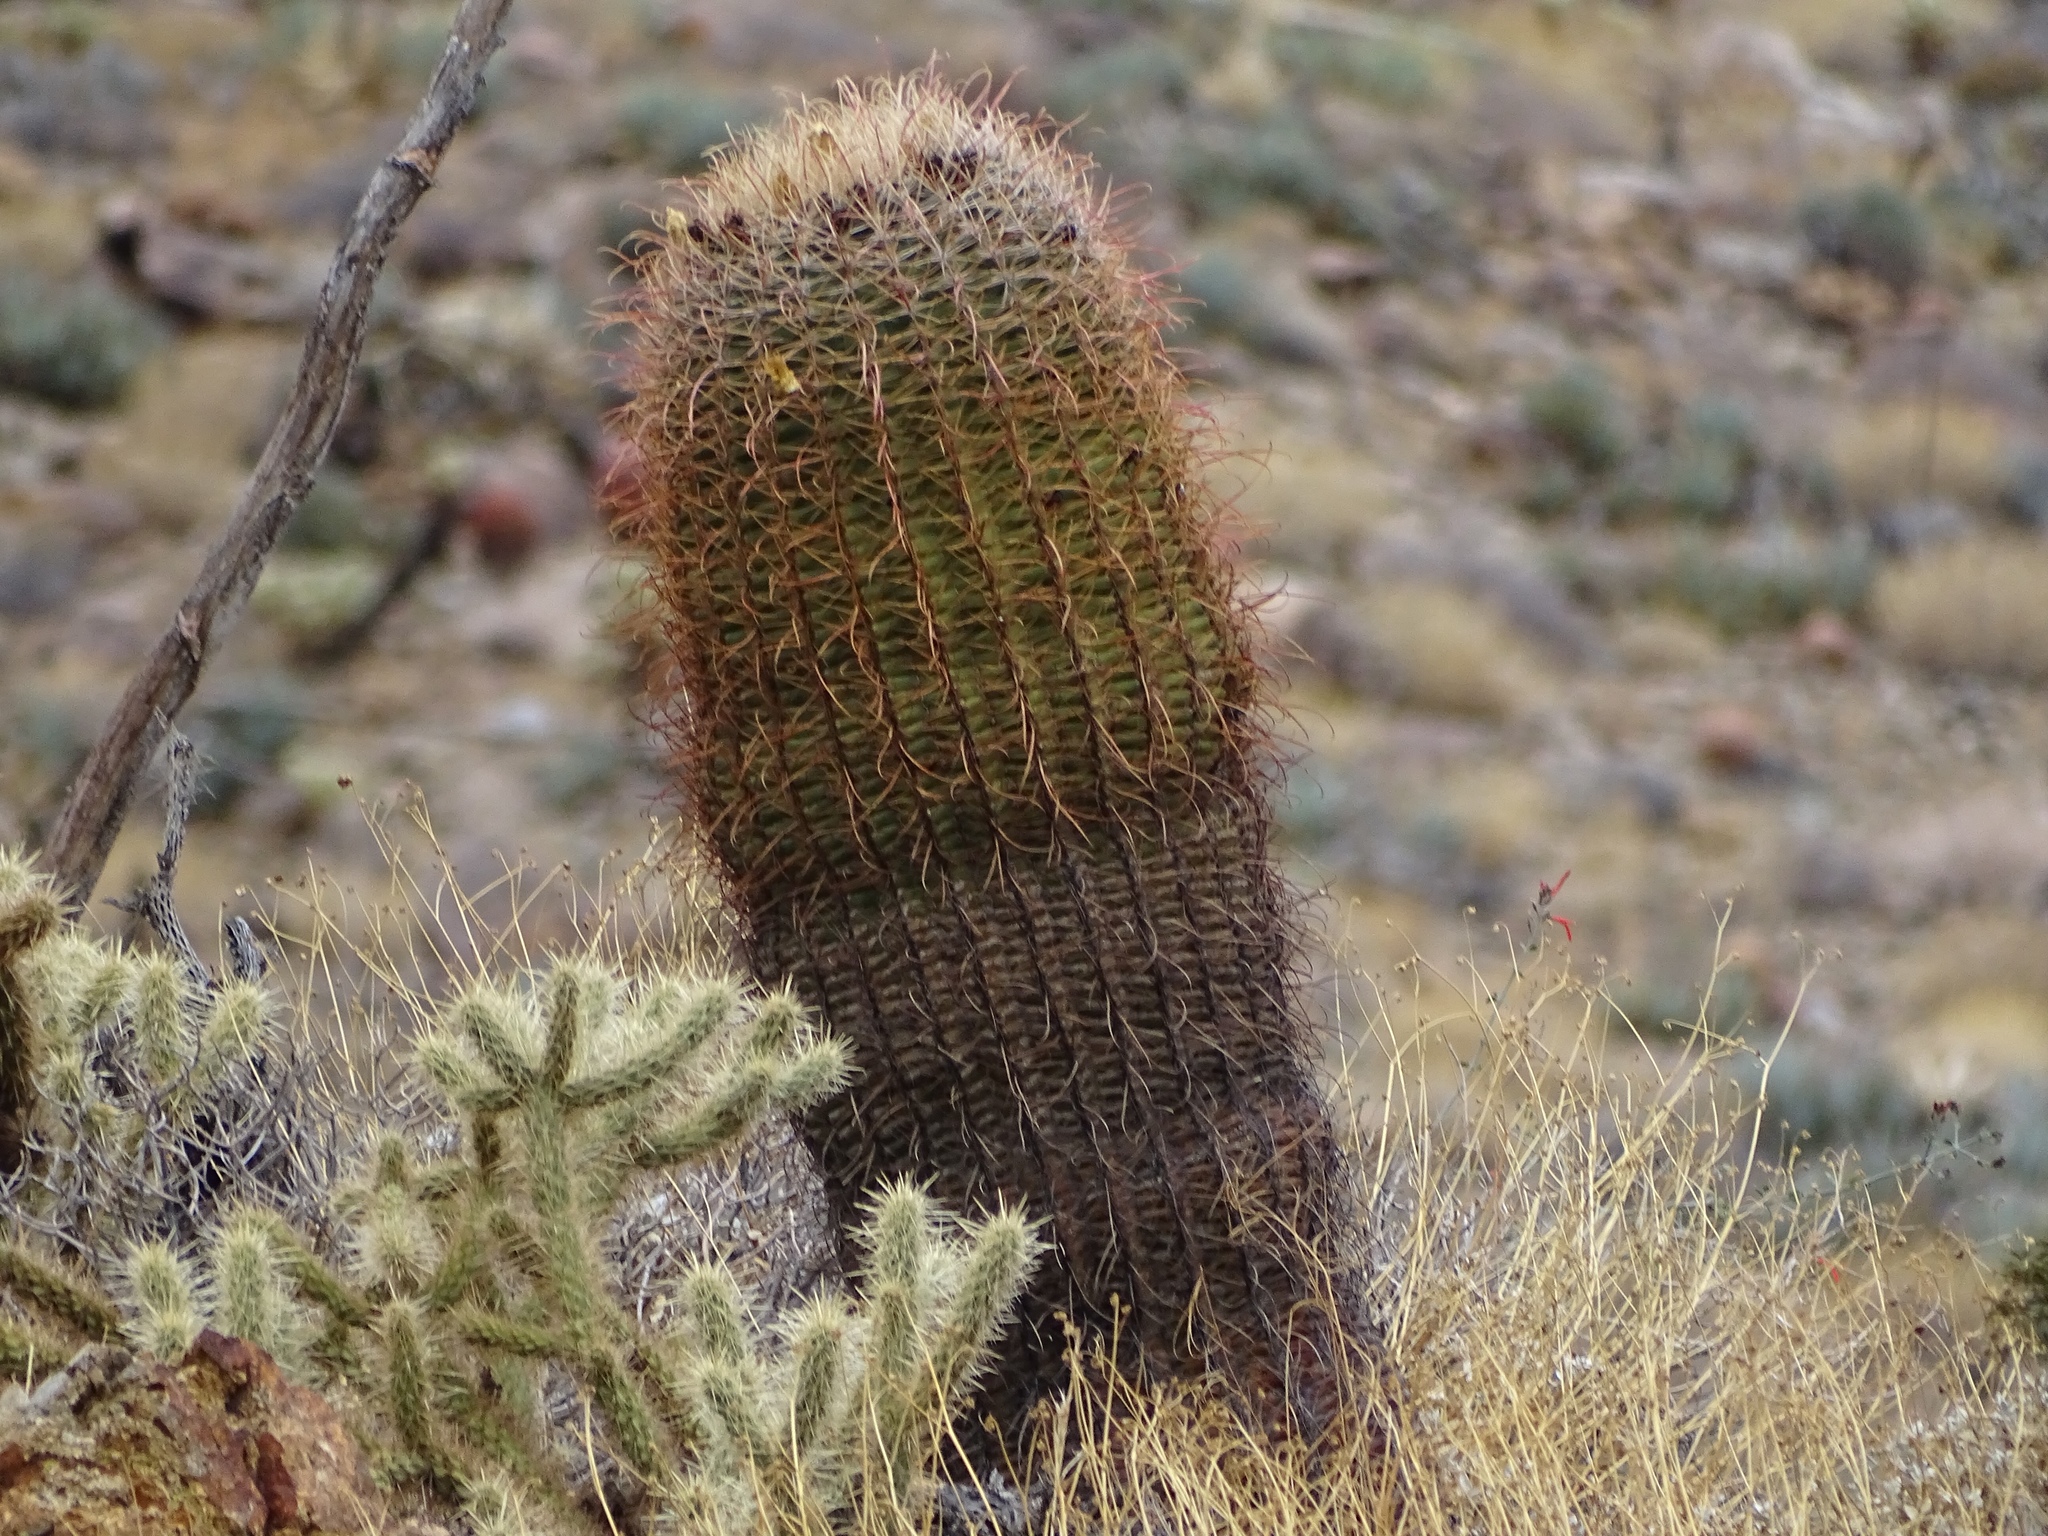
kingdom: Plantae
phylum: Tracheophyta
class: Magnoliopsida
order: Caryophyllales
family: Cactaceae
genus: Ferocactus
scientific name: Ferocactus cylindraceus
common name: California barrel cactus
